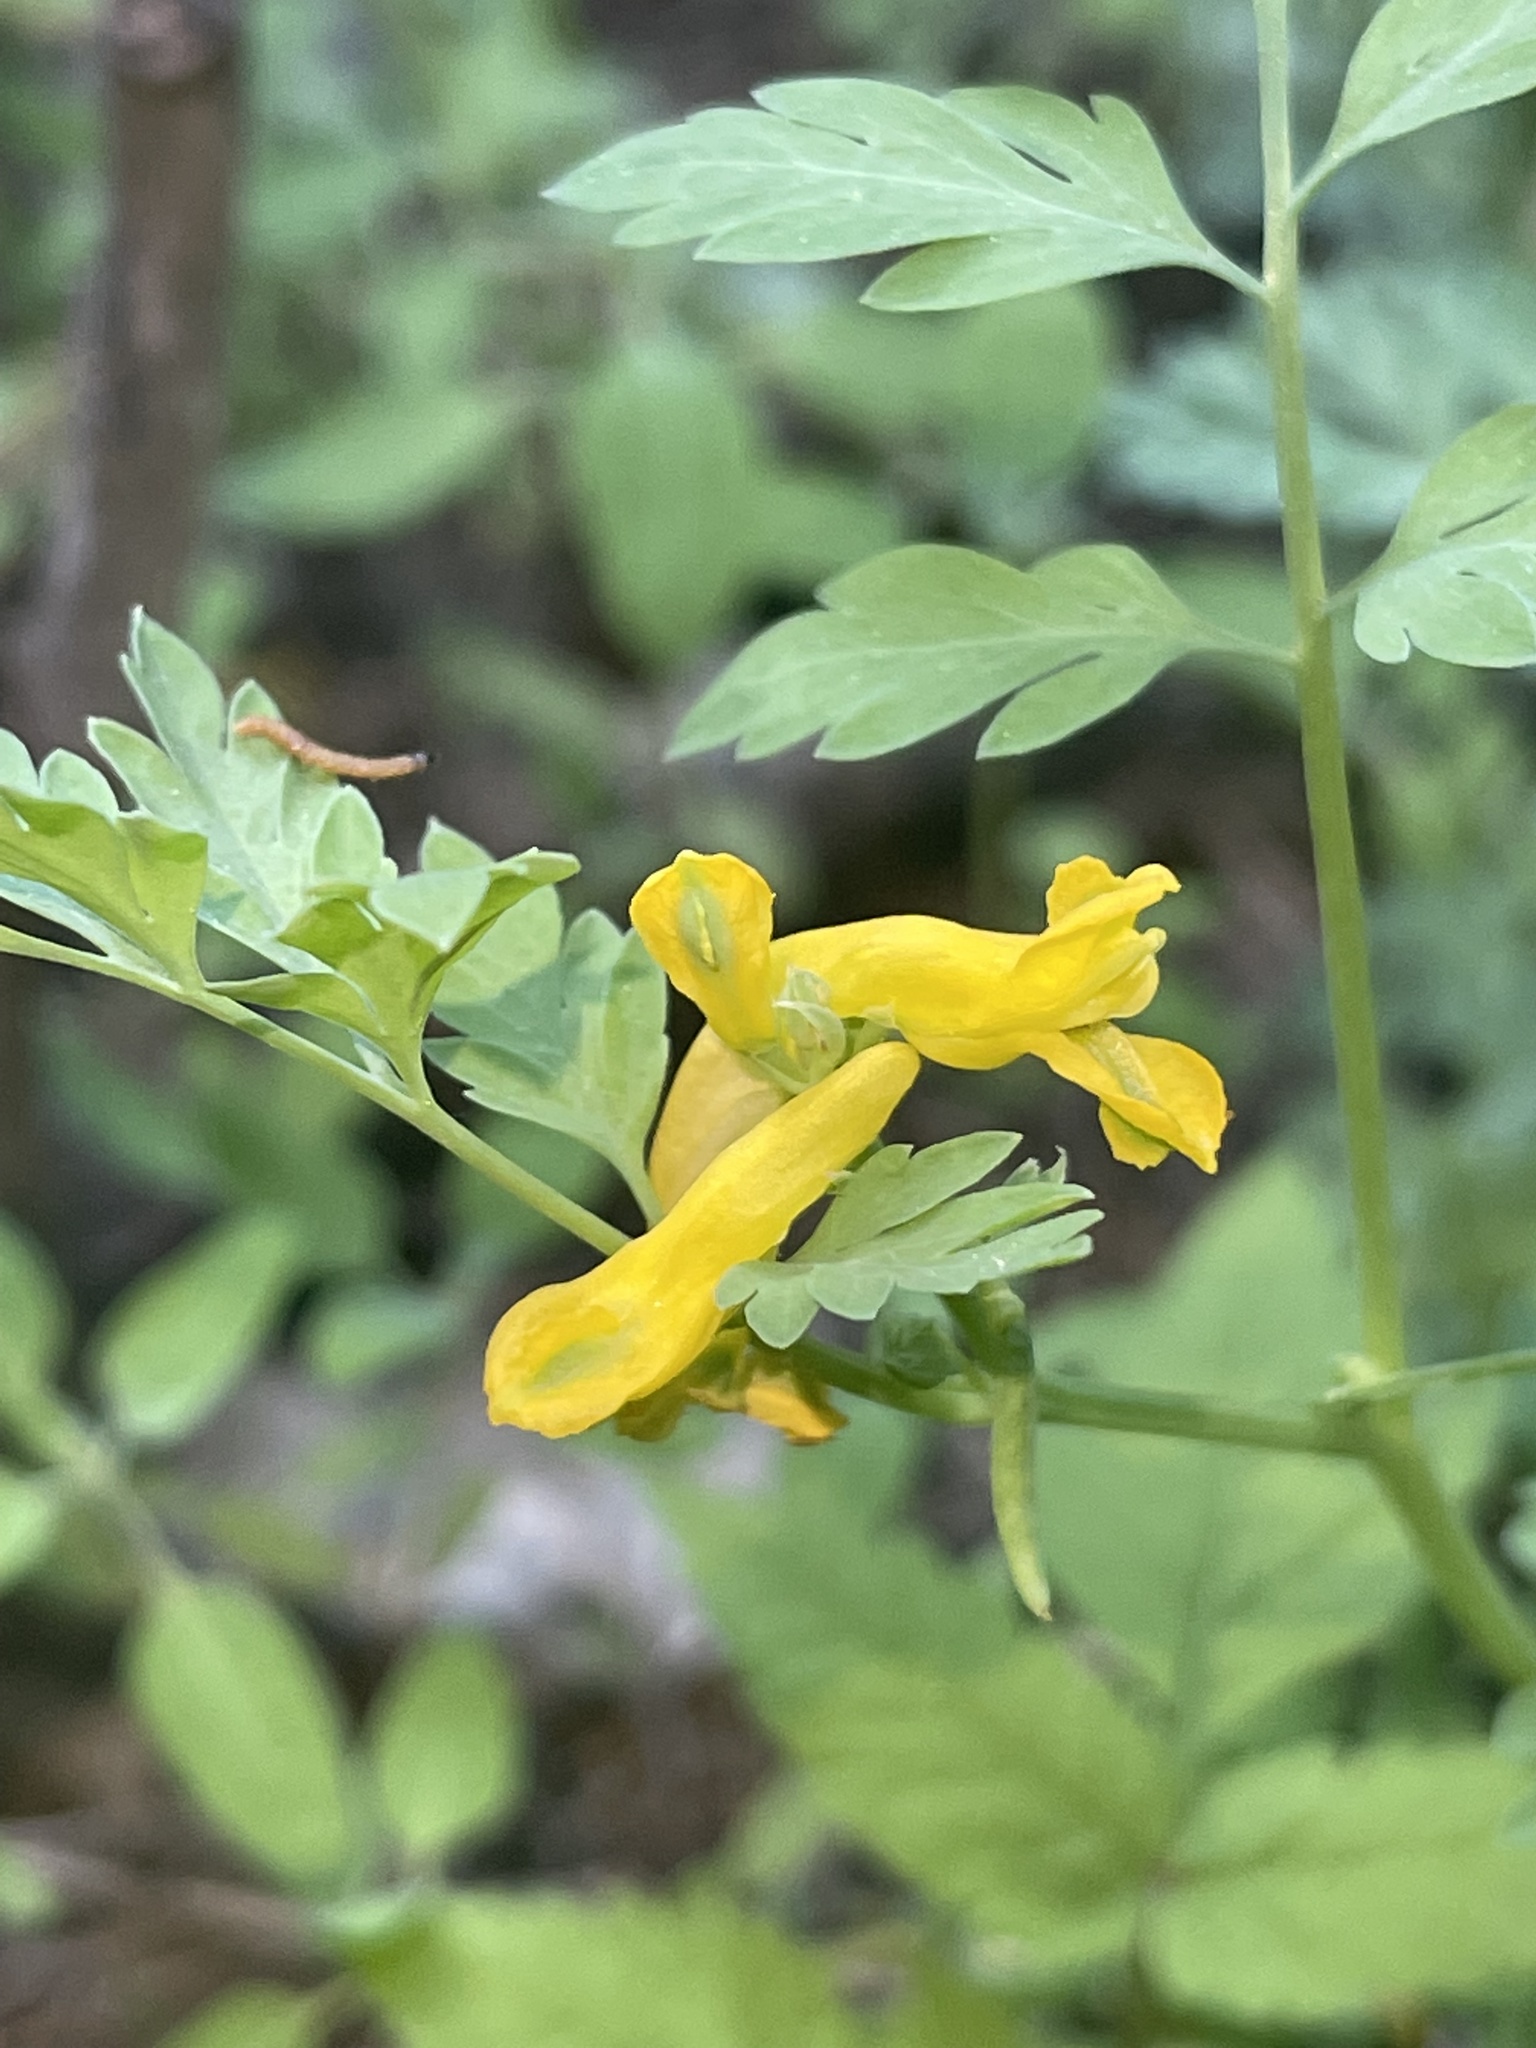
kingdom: Plantae
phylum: Tracheophyta
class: Magnoliopsida
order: Ranunculales
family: Papaveraceae
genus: Corydalis
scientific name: Corydalis aurea
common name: Golden corydalis
